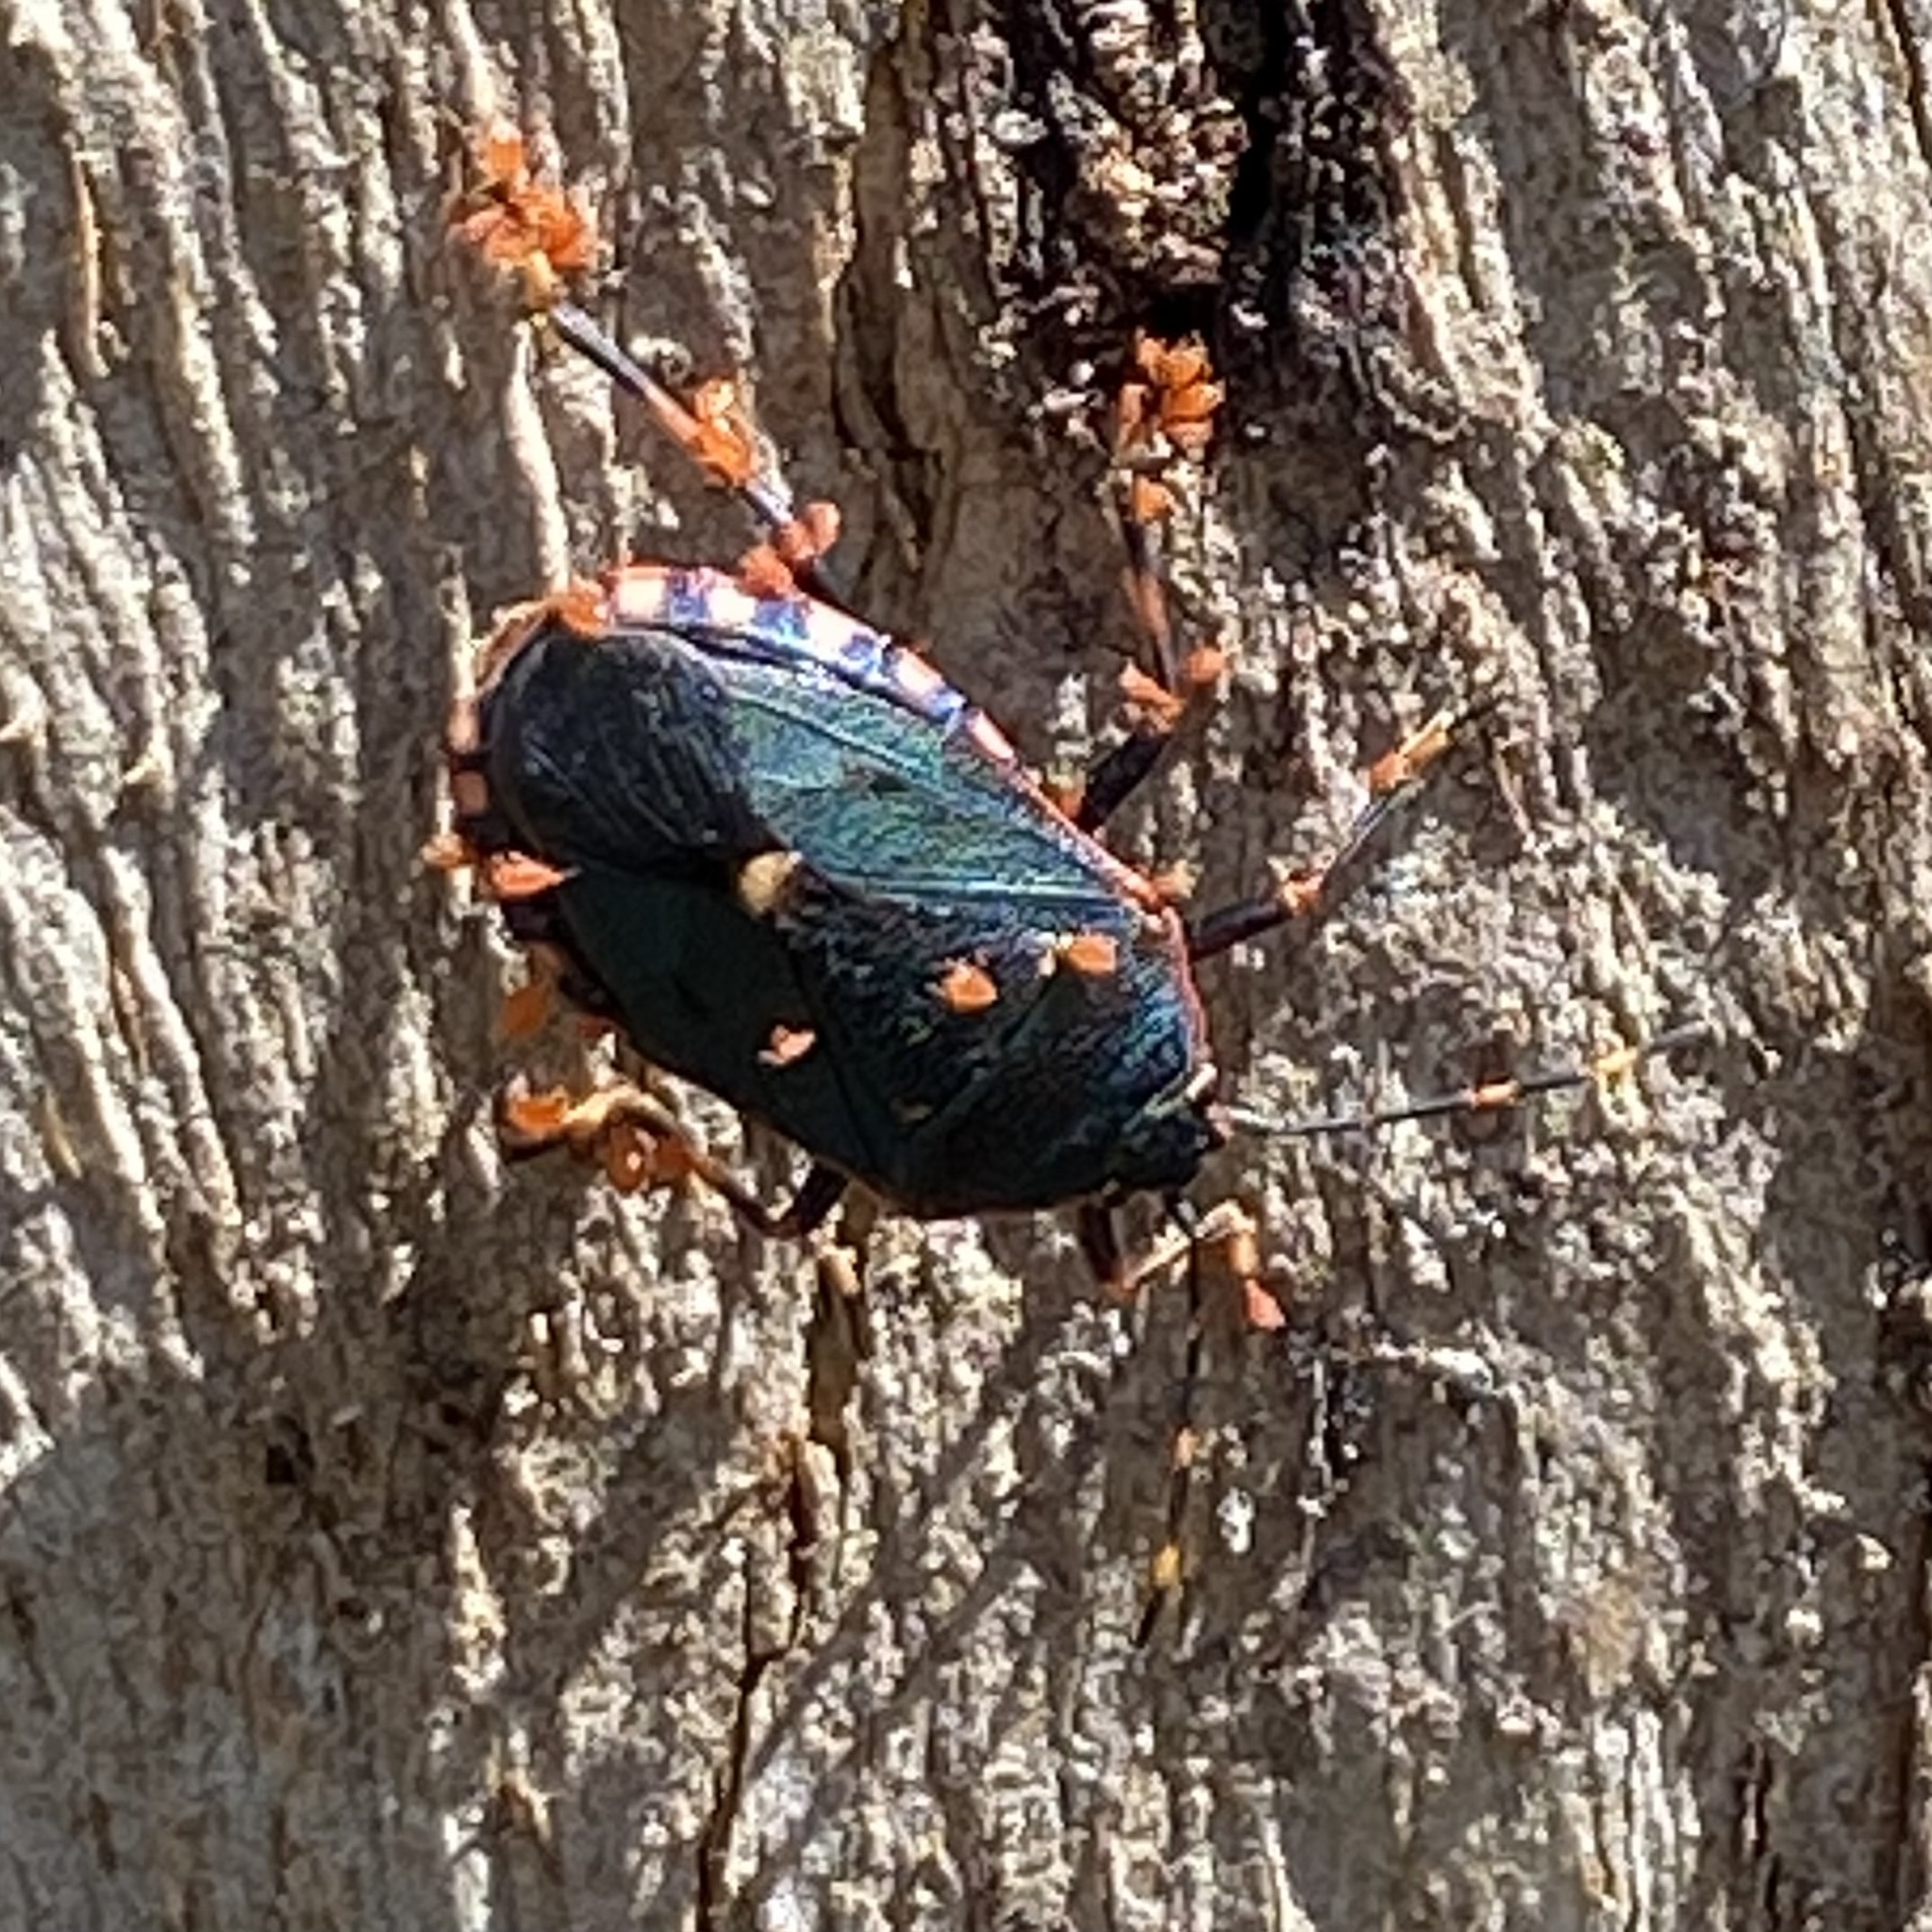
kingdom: Animalia
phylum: Arthropoda
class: Insecta
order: Hemiptera
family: Pentatomidae
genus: Notius
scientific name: Notius
